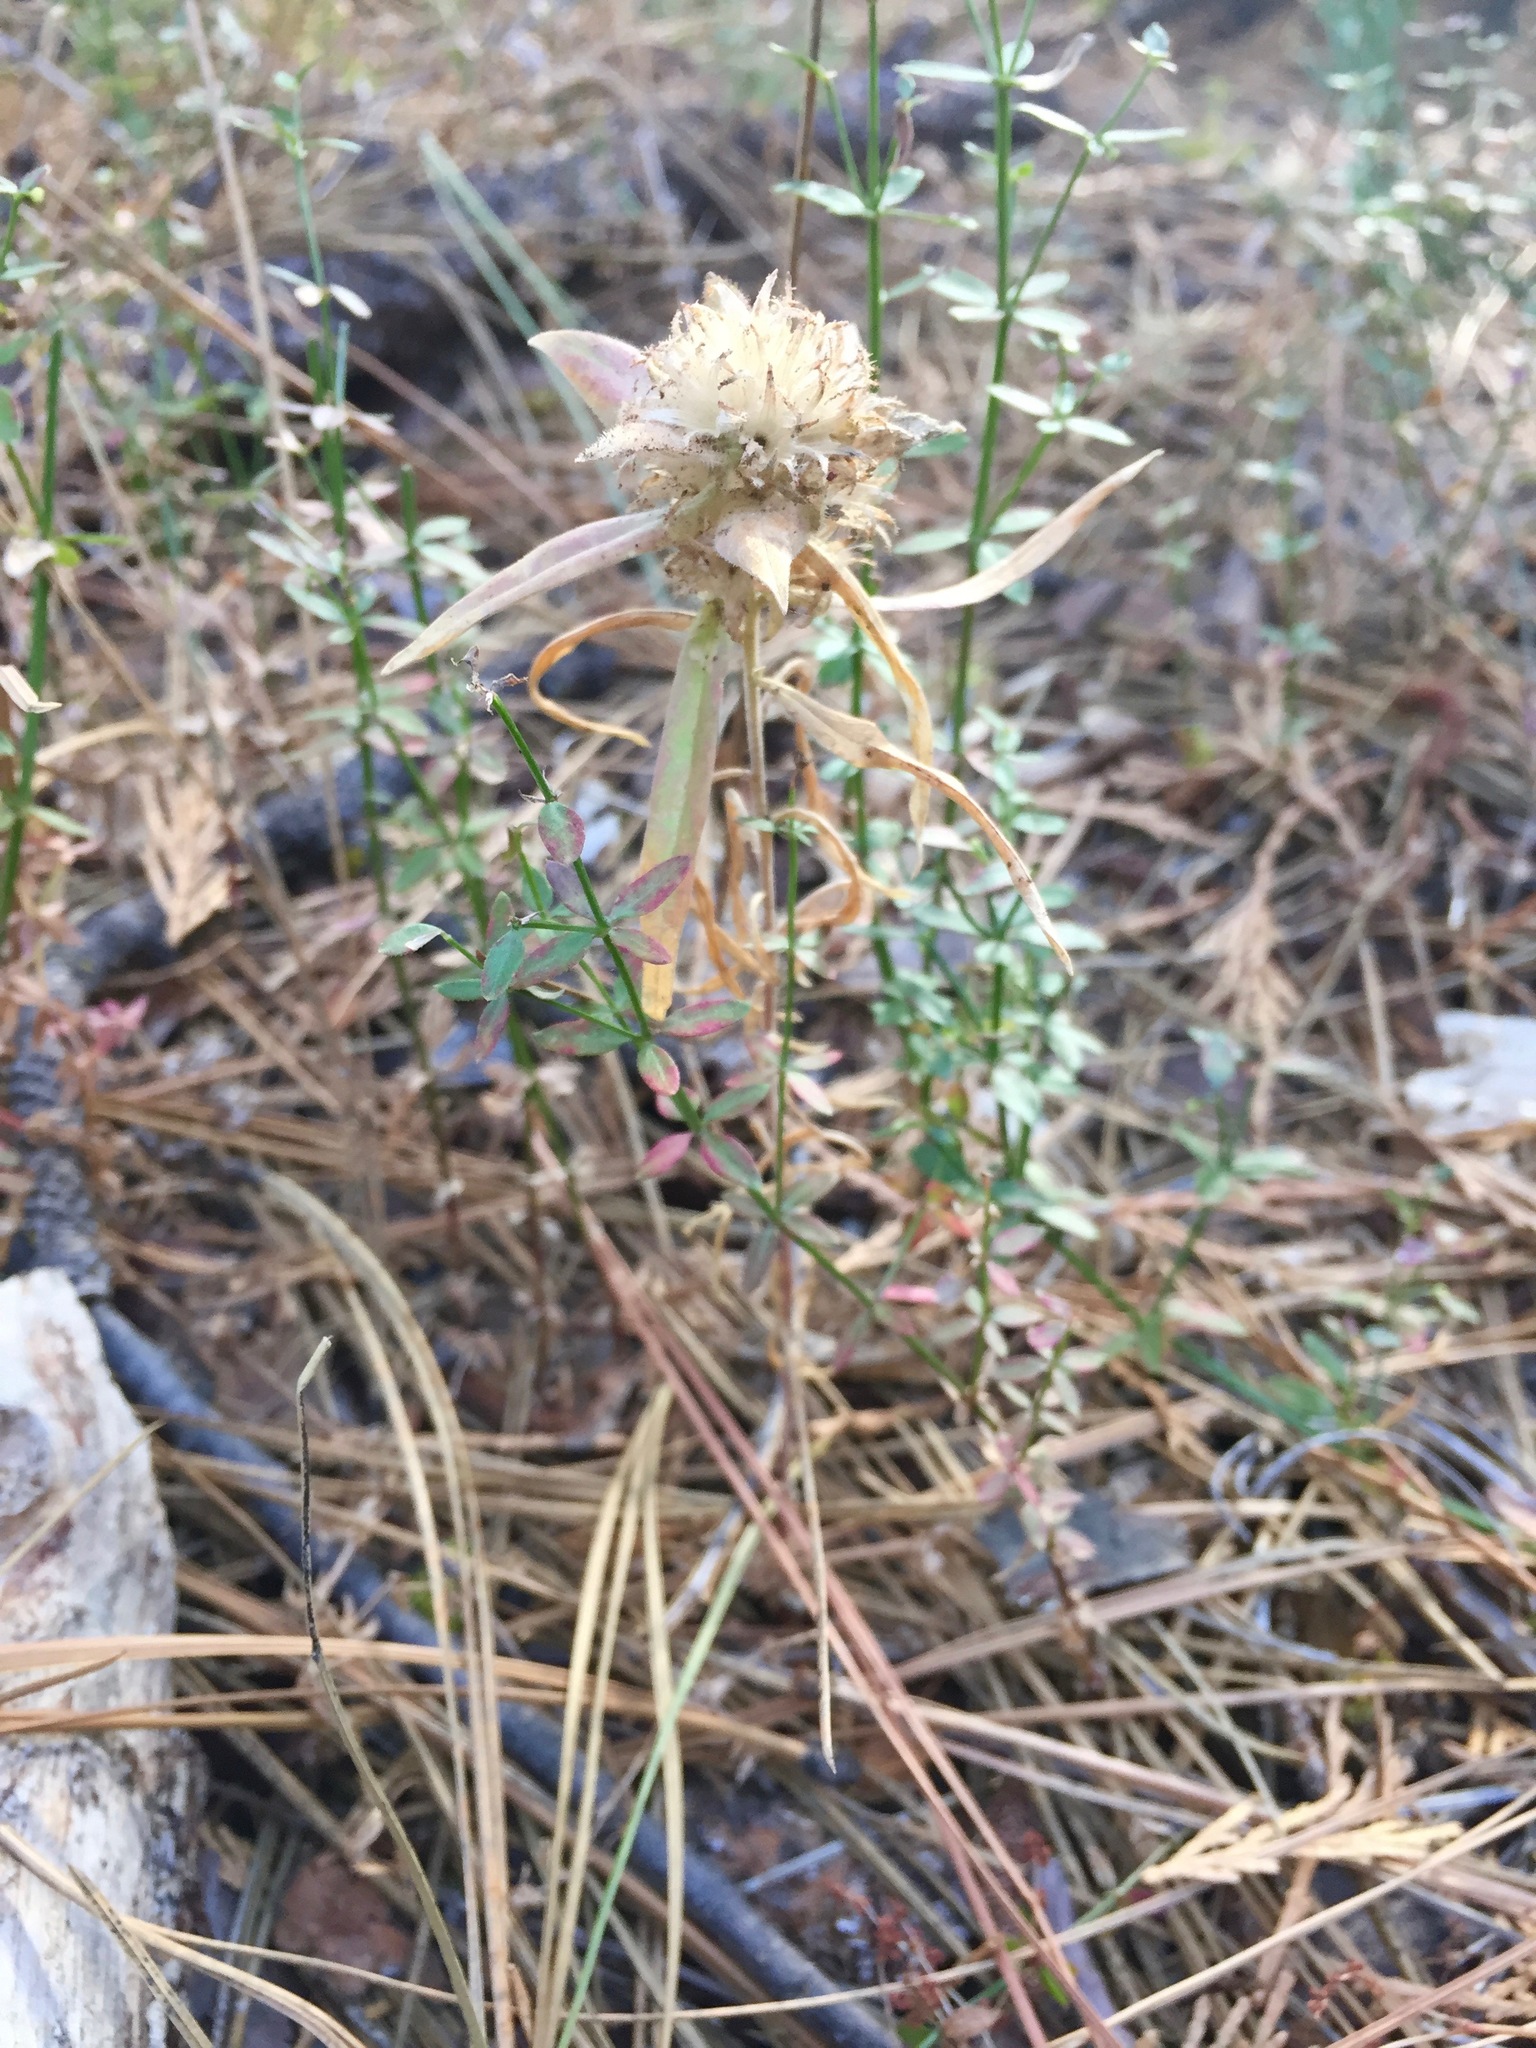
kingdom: Plantae
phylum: Tracheophyta
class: Magnoliopsida
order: Ericales
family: Polemoniaceae
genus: Collomia
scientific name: Collomia grandiflora
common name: California strawflower
